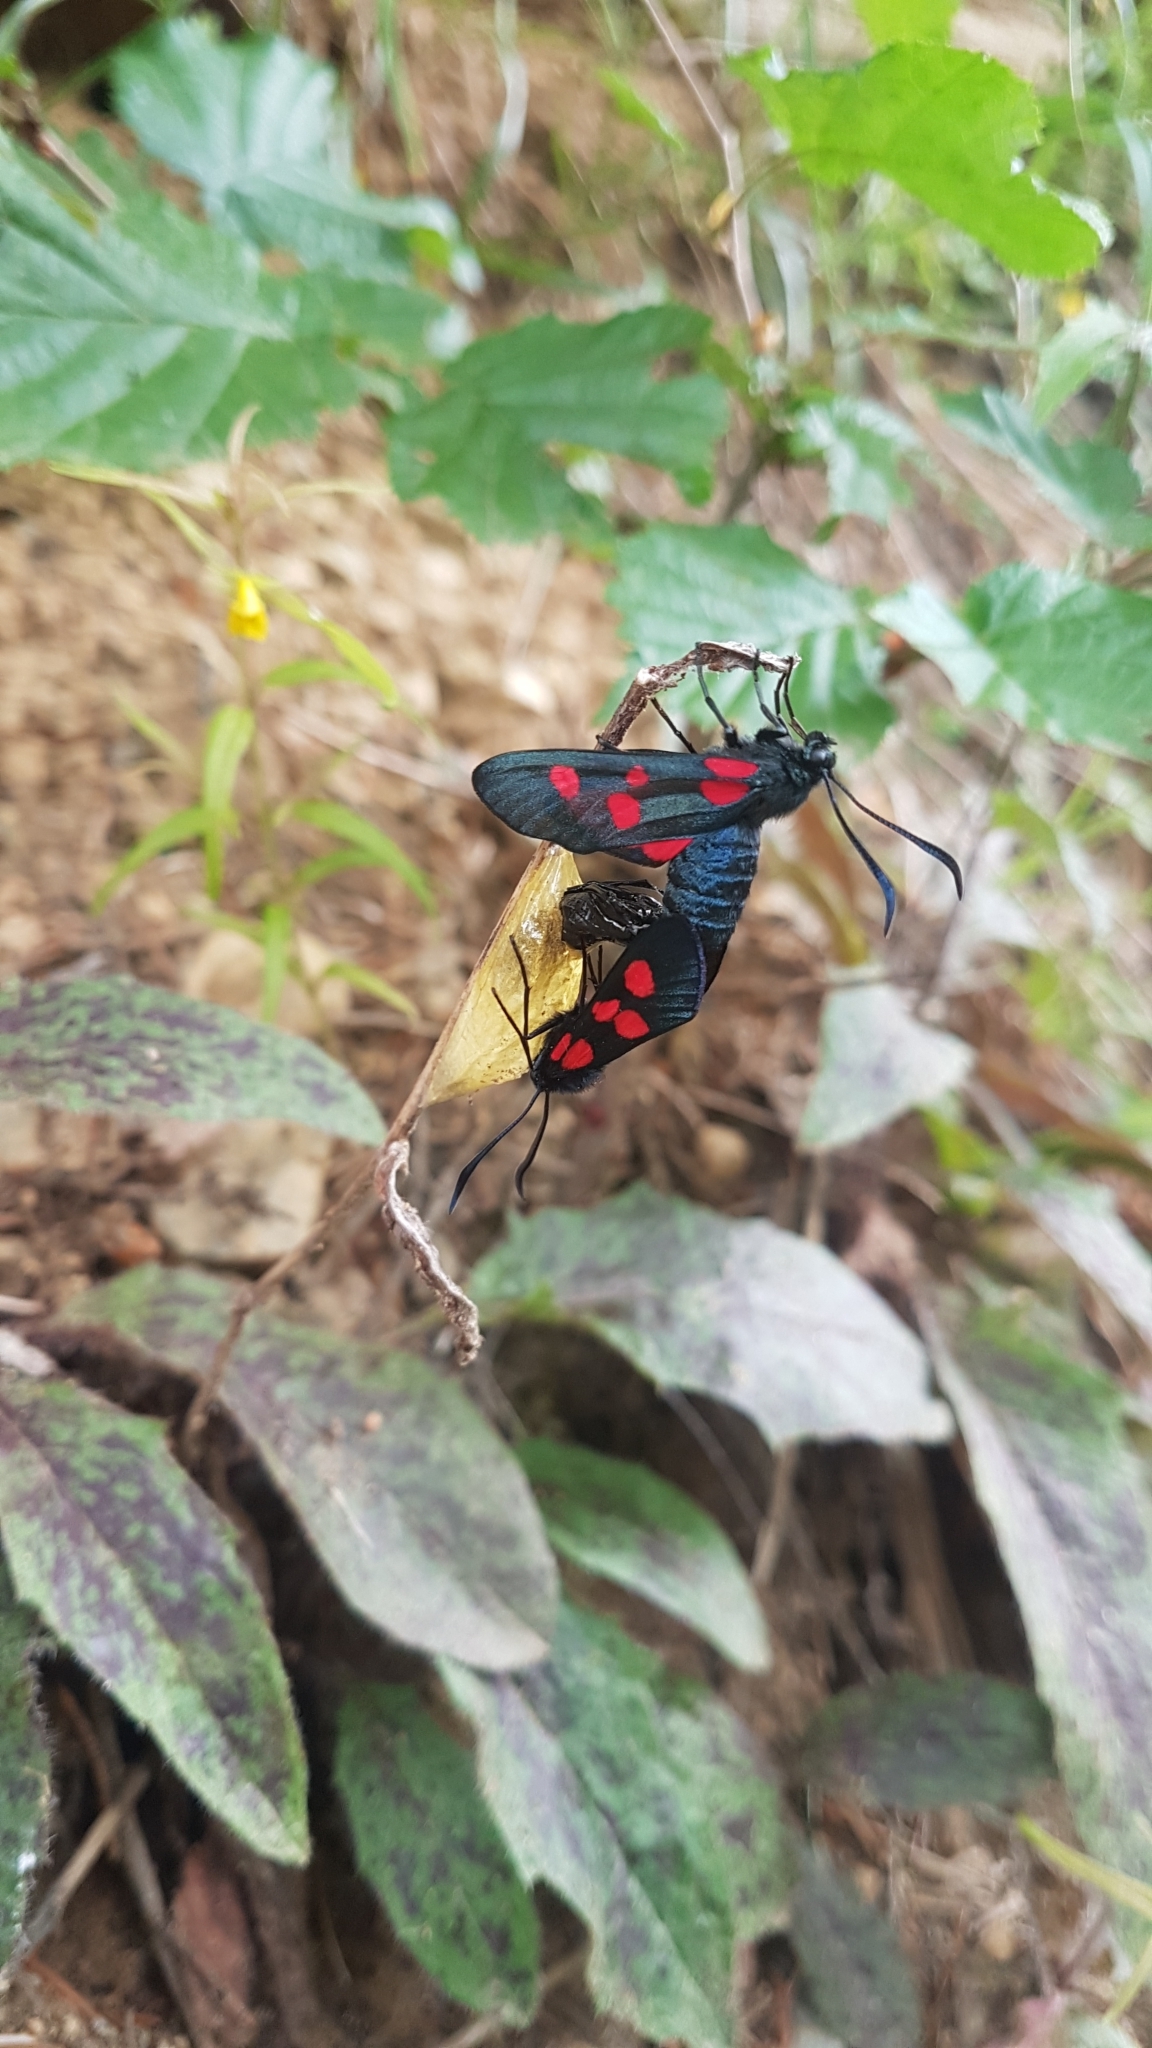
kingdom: Animalia
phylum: Arthropoda
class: Insecta
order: Lepidoptera
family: Zygaenidae
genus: Zygaena
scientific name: Zygaena lonicerae
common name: Narrow-bordered five-spot burnet
